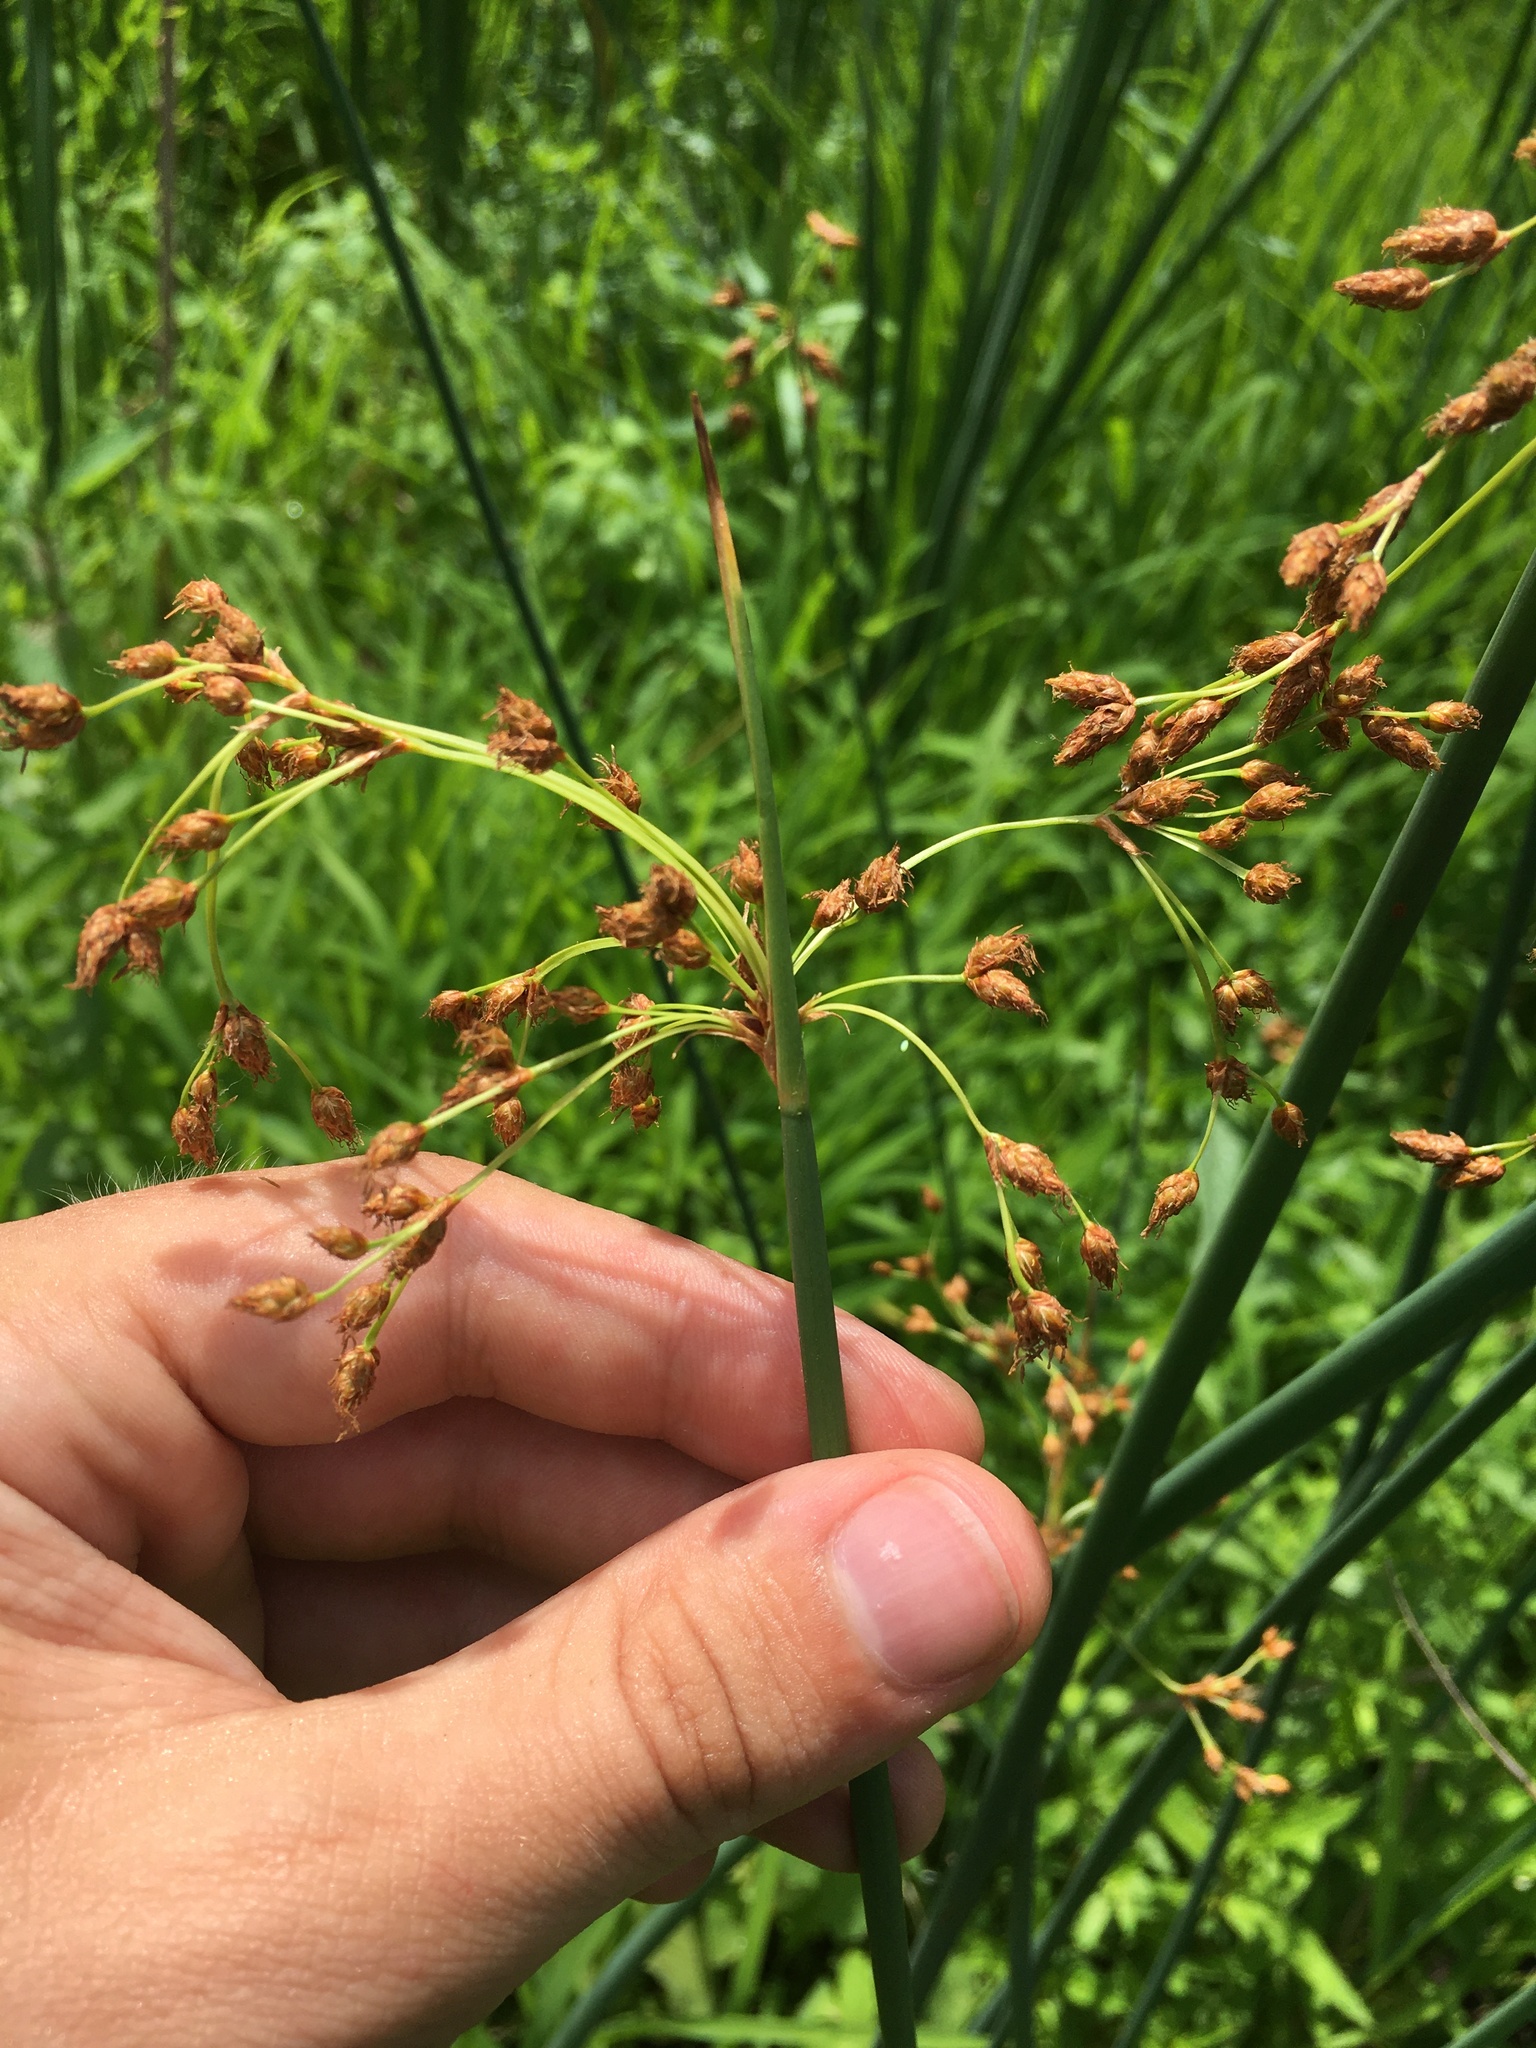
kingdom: Plantae
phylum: Tracheophyta
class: Liliopsida
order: Poales
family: Cyperaceae
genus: Schoenoplectus
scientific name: Schoenoplectus tabernaemontani
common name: Grey club-rush
